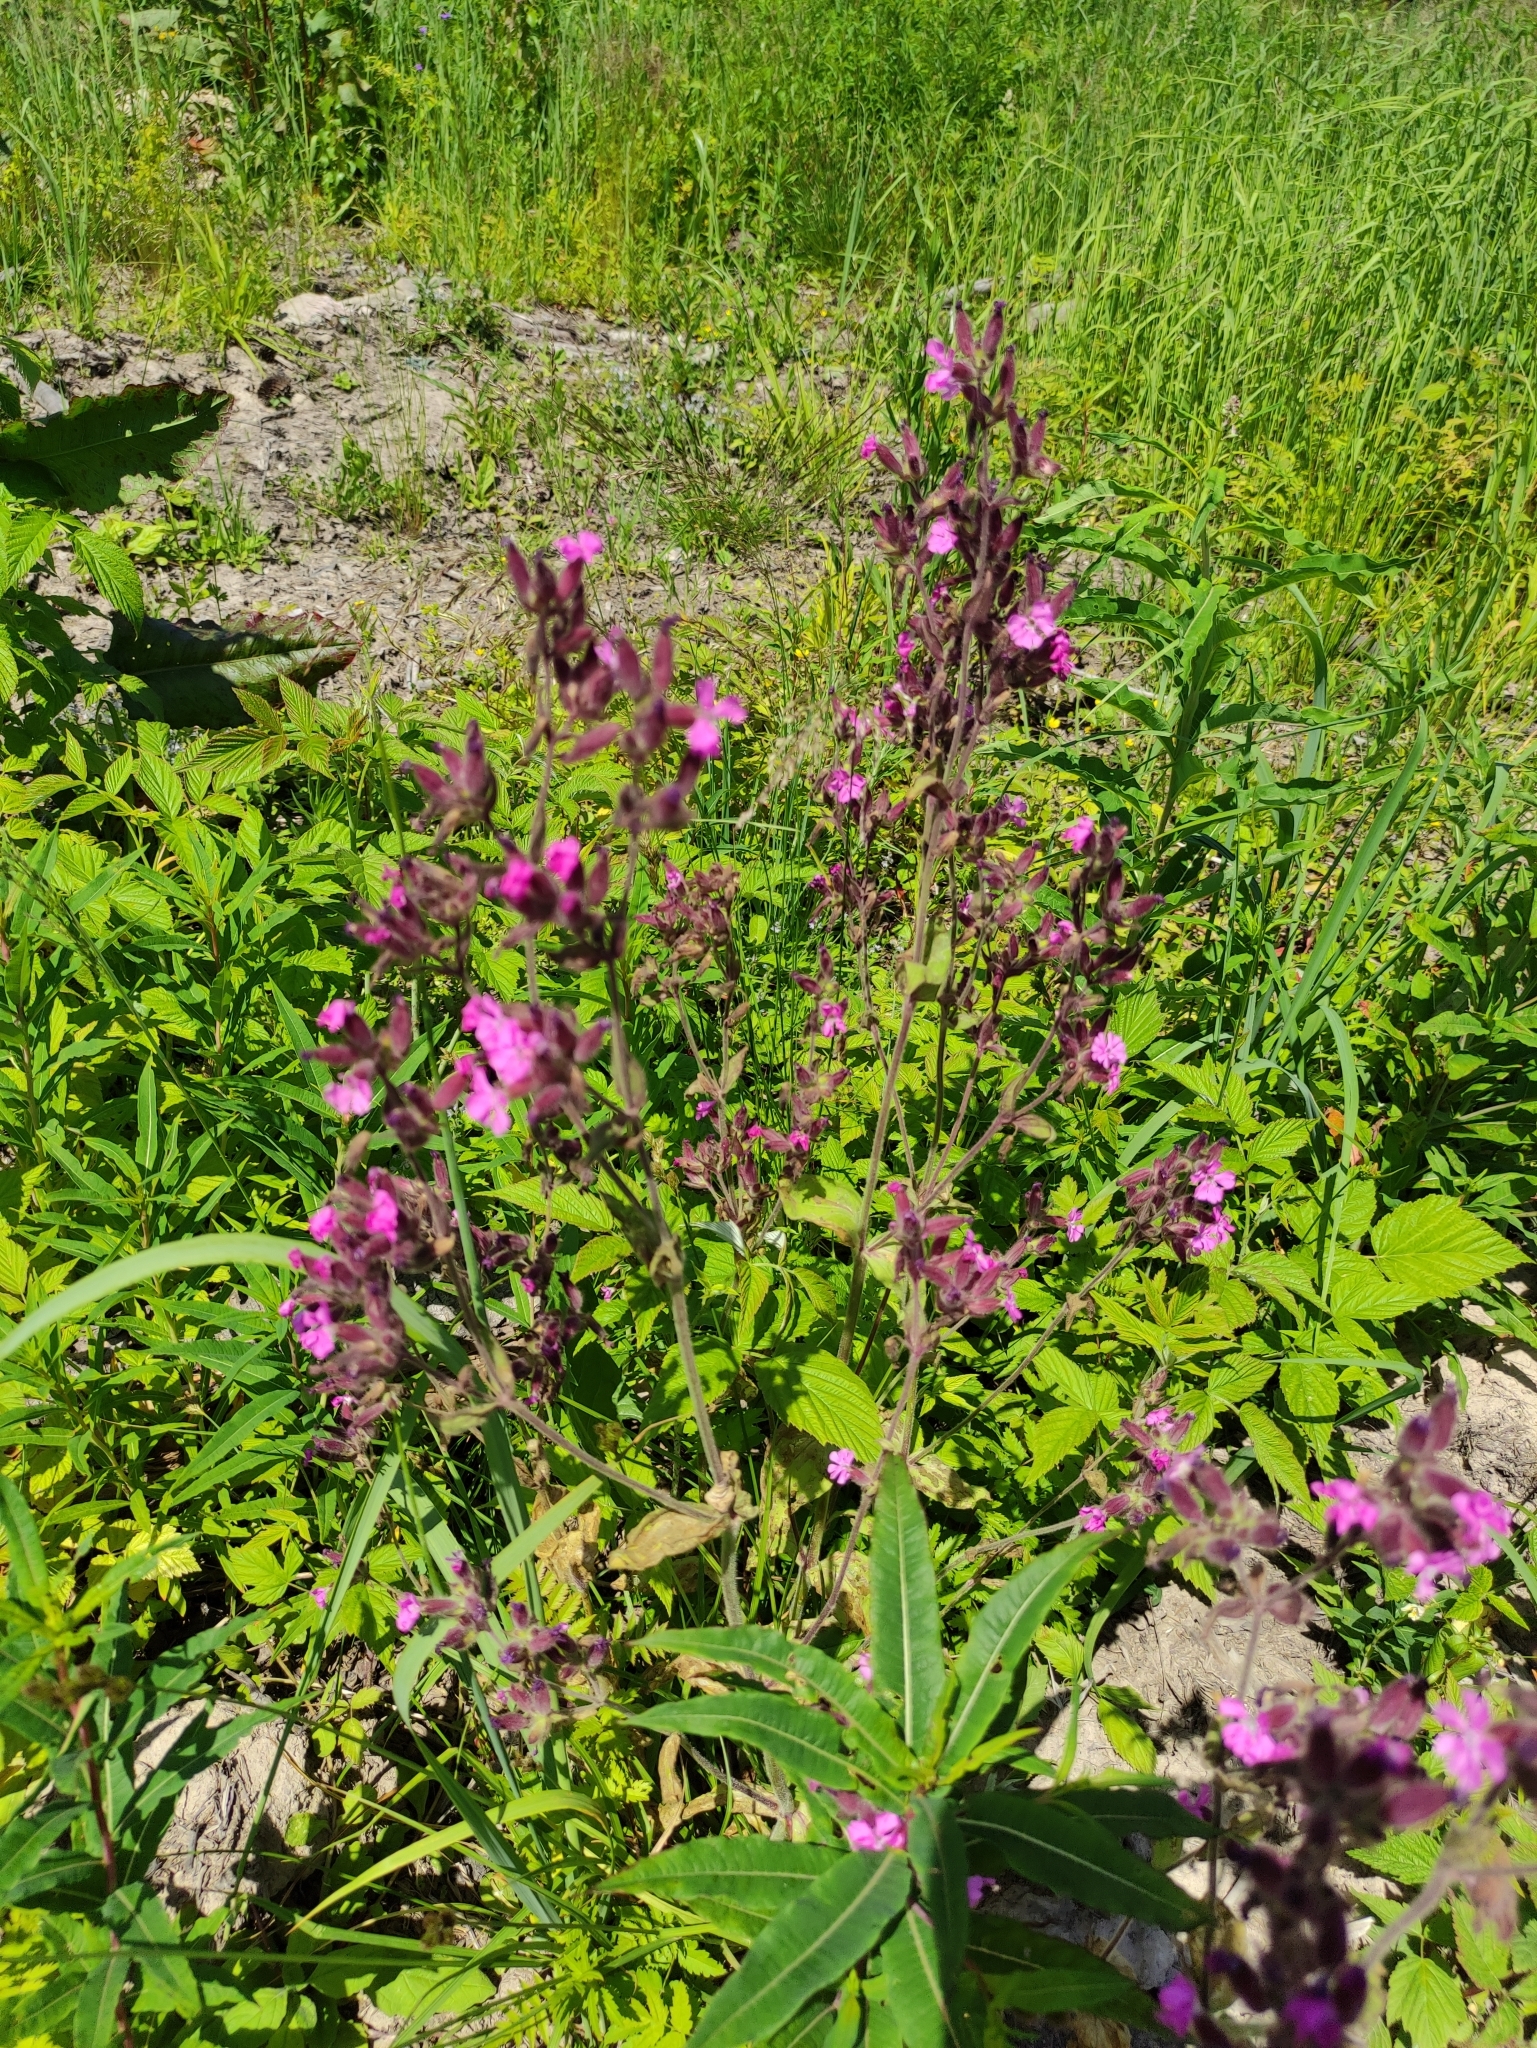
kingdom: Plantae
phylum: Tracheophyta
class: Magnoliopsida
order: Caryophyllales
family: Caryophyllaceae
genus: Viscaria
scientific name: Viscaria vulgaris
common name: Clammy campion
